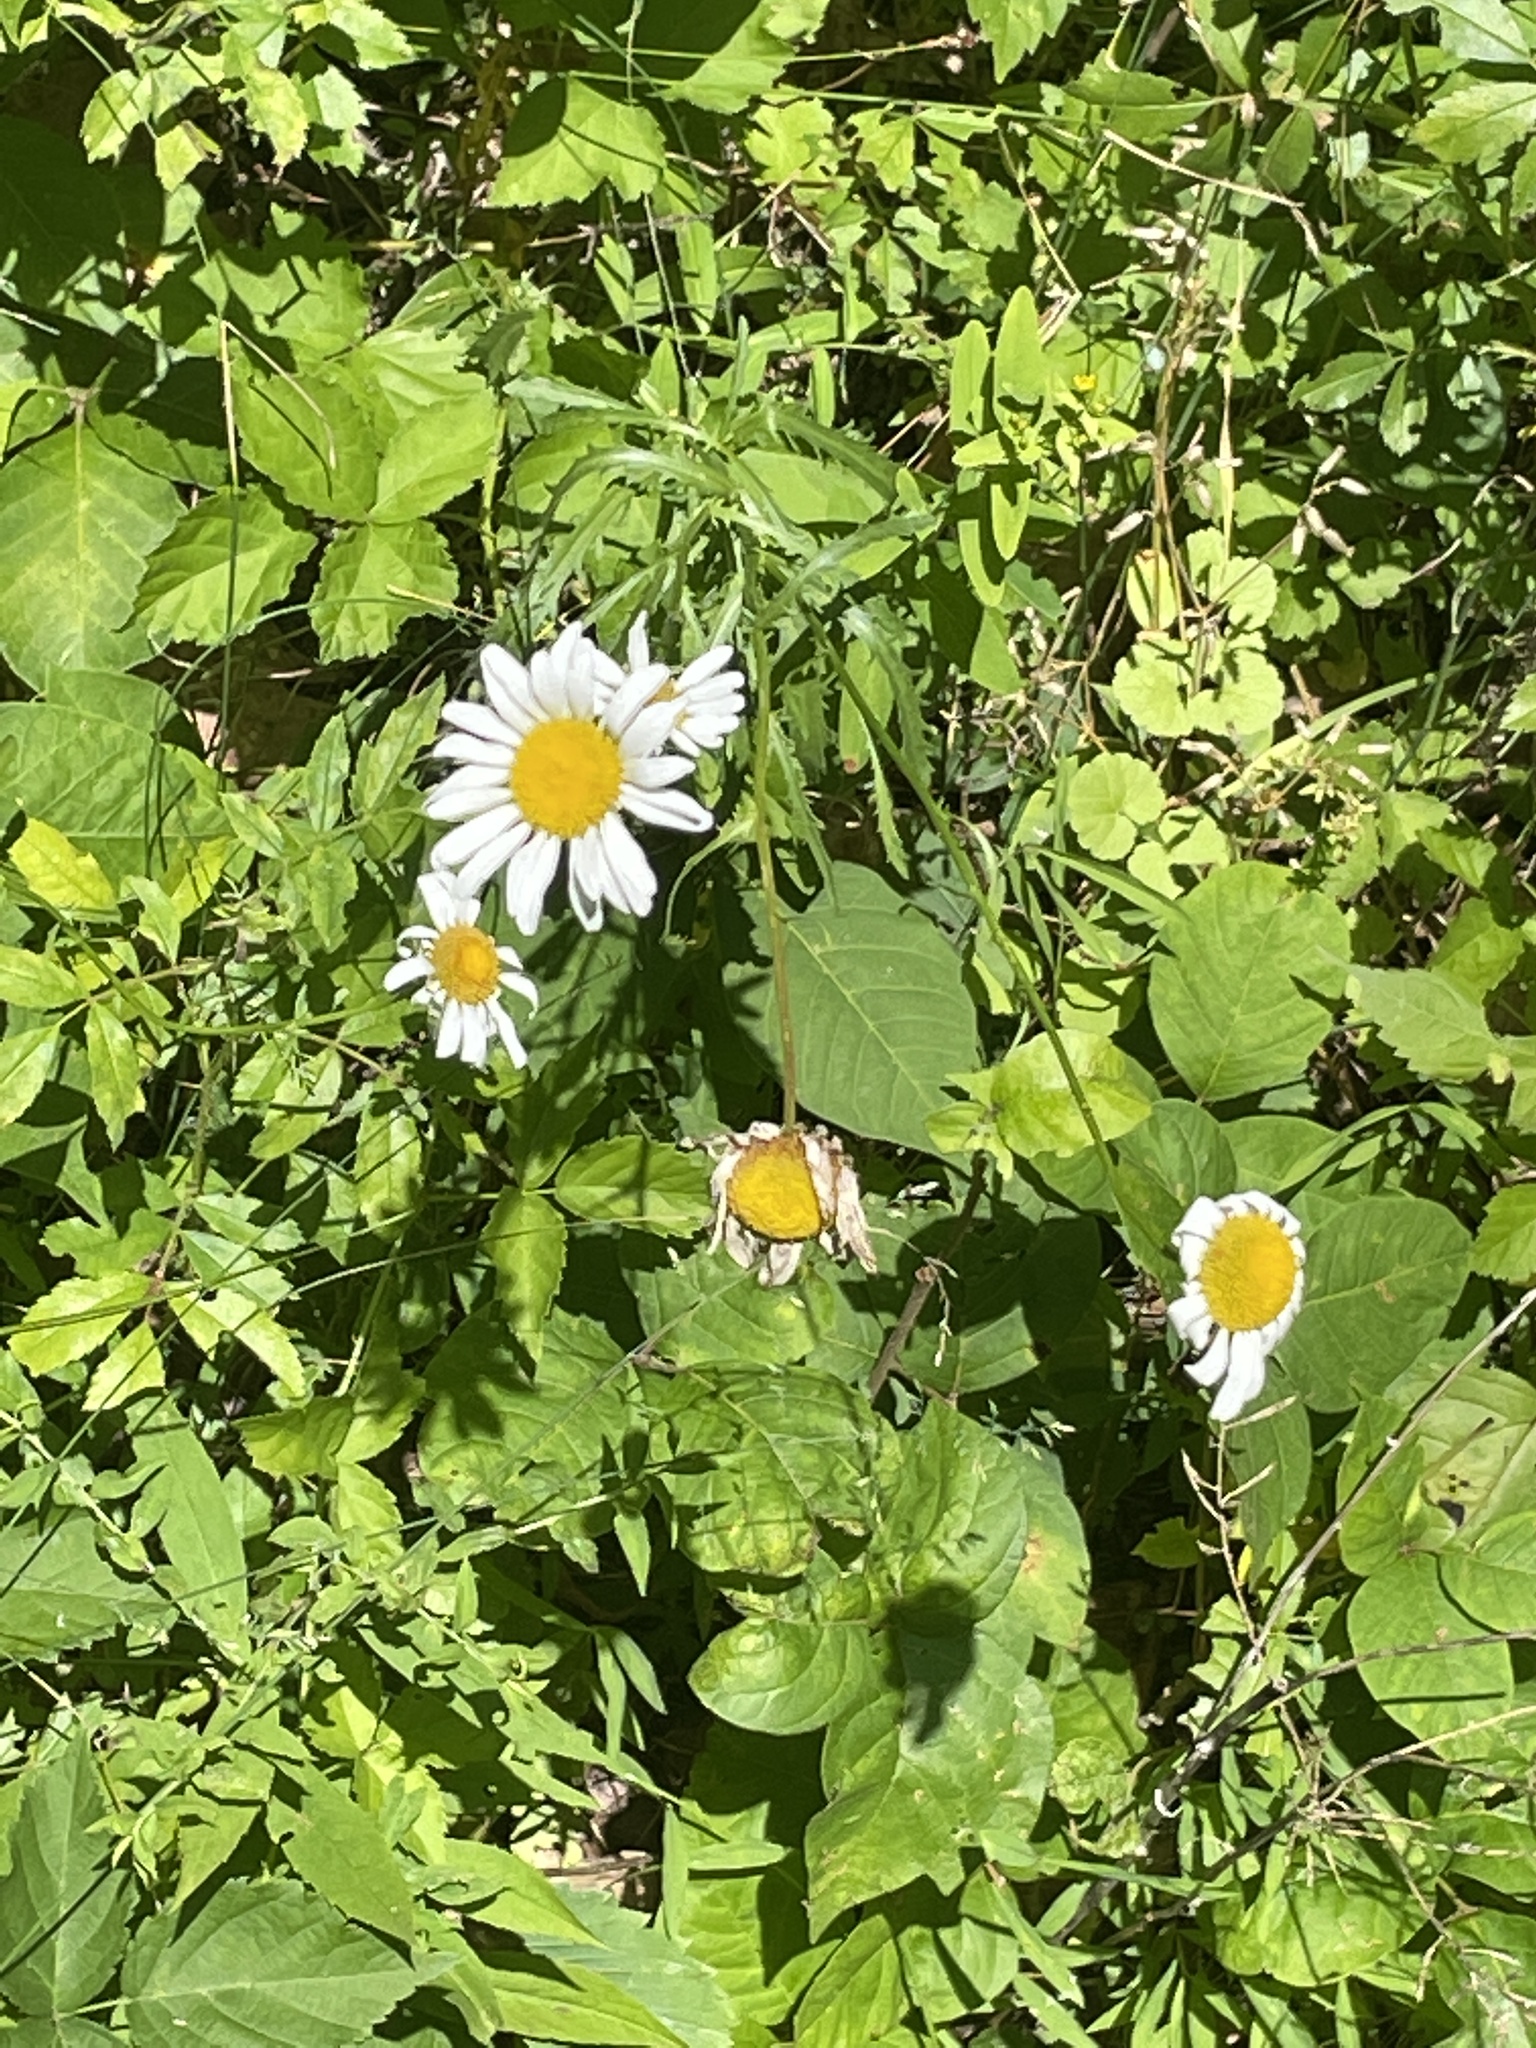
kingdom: Plantae
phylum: Tracheophyta
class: Magnoliopsida
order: Asterales
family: Asteraceae
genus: Leucanthemum
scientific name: Leucanthemum vulgare
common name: Oxeye daisy
